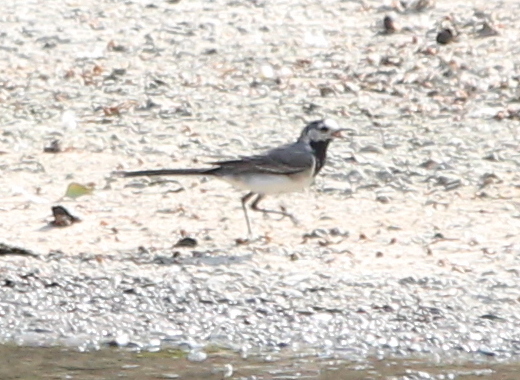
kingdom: Animalia
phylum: Chordata
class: Aves
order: Passeriformes
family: Motacillidae
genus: Motacilla
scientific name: Motacilla alba
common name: White wagtail
